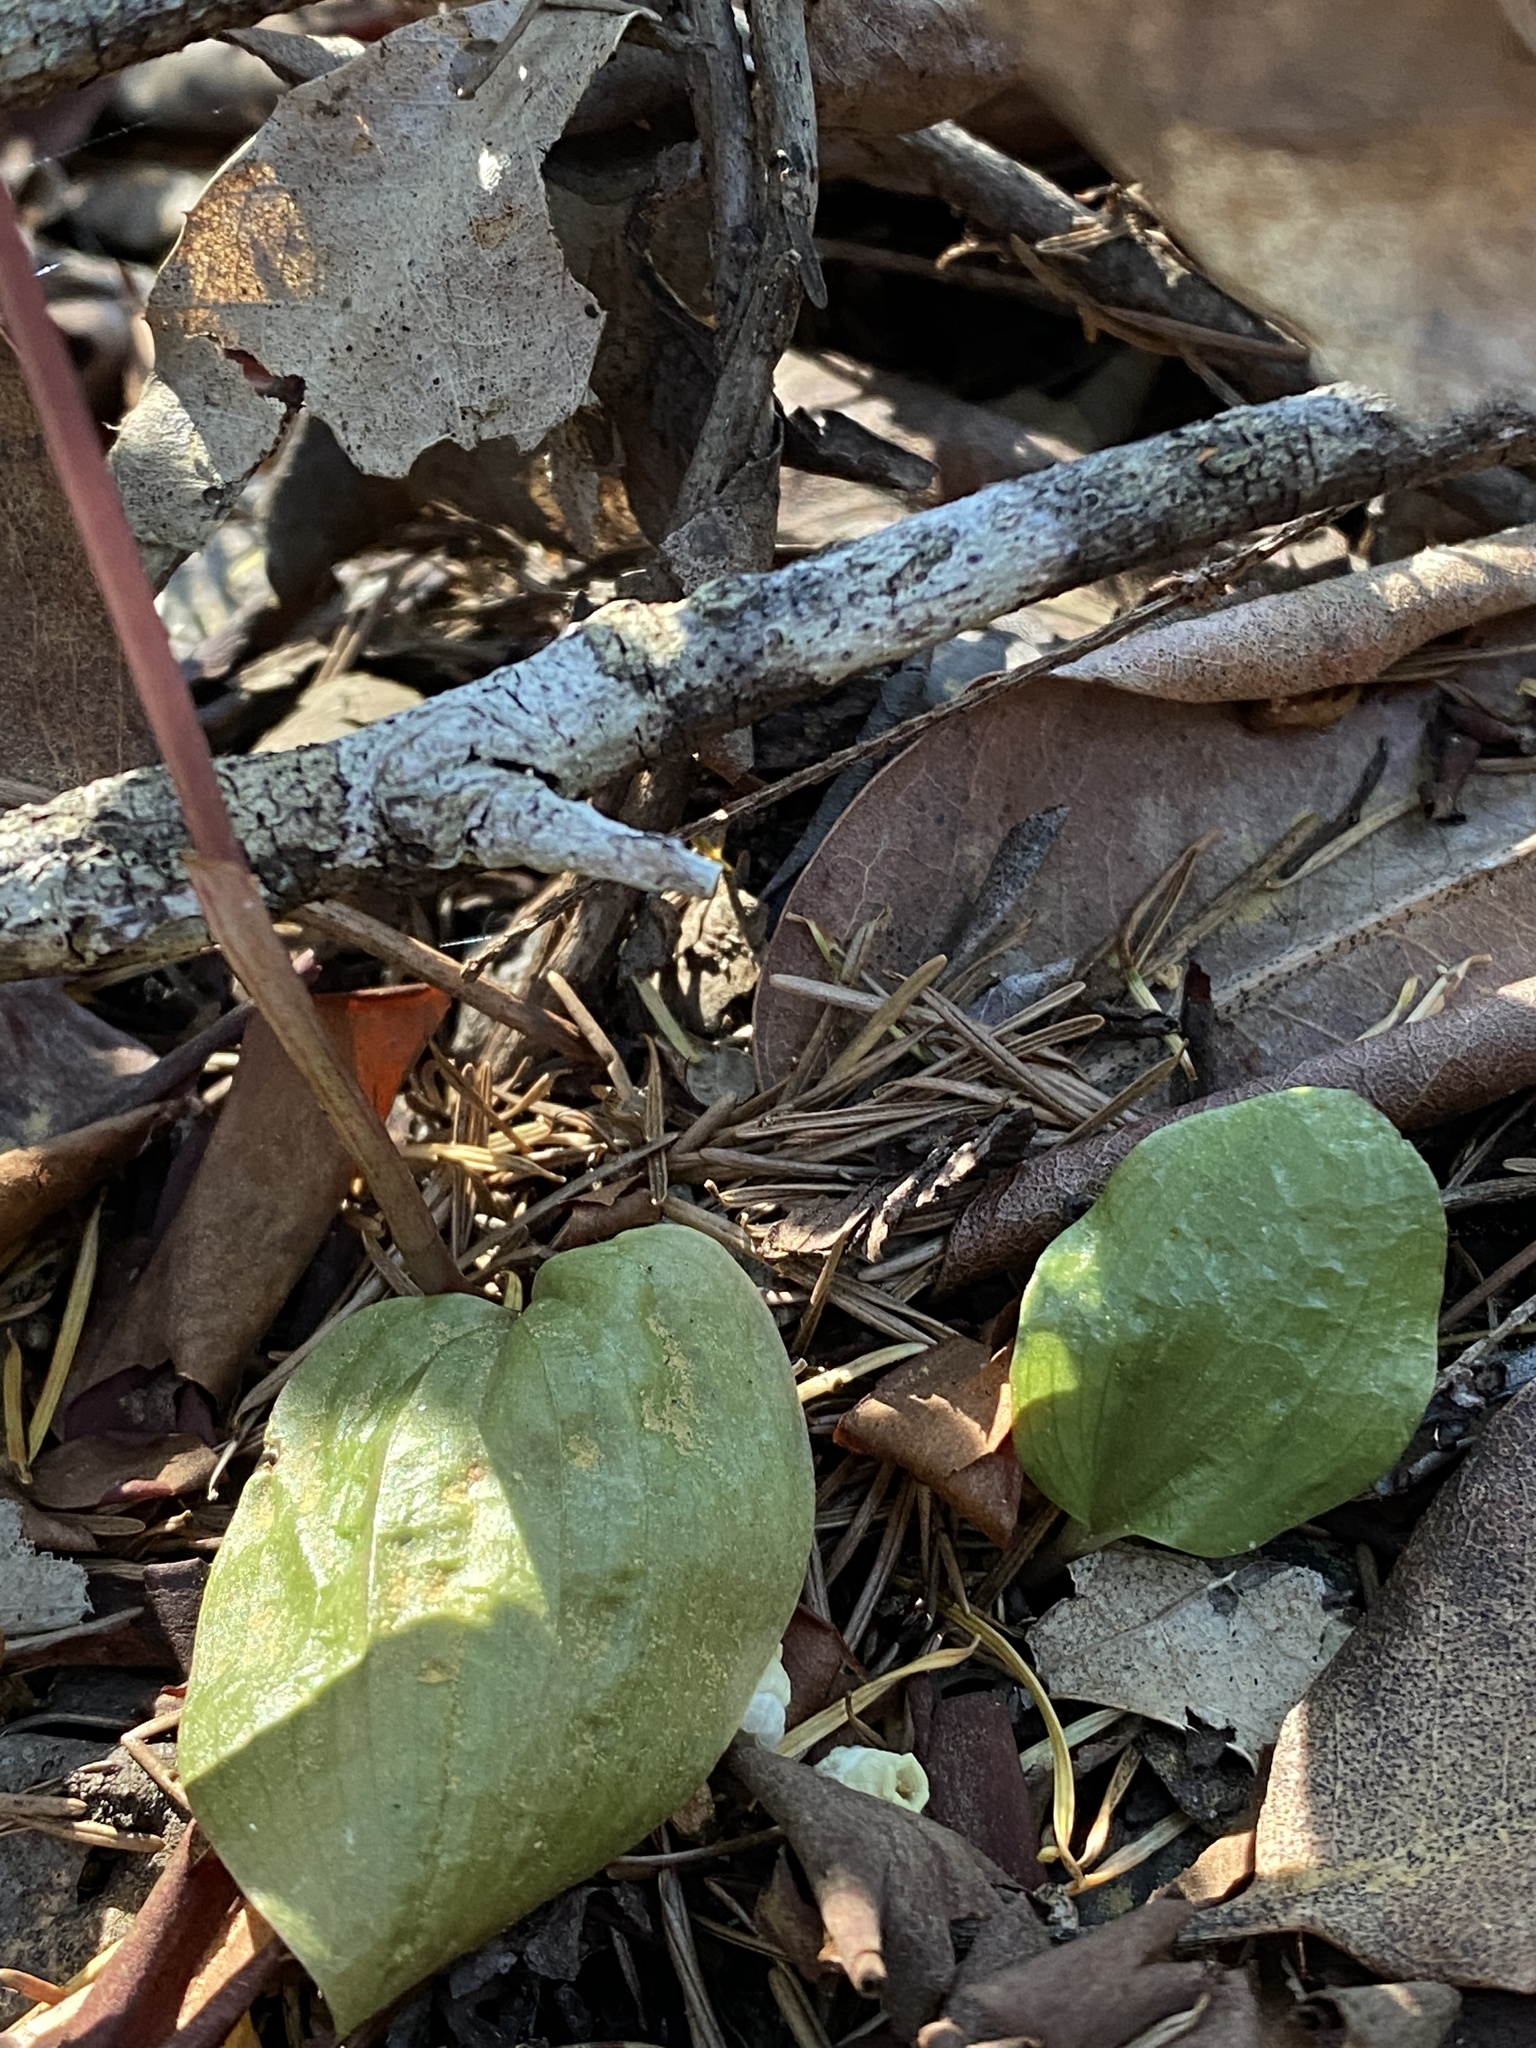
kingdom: Plantae
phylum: Tracheophyta
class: Liliopsida
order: Asparagales
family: Orchidaceae
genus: Calypso
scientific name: Calypso bulbosa
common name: Calypso
